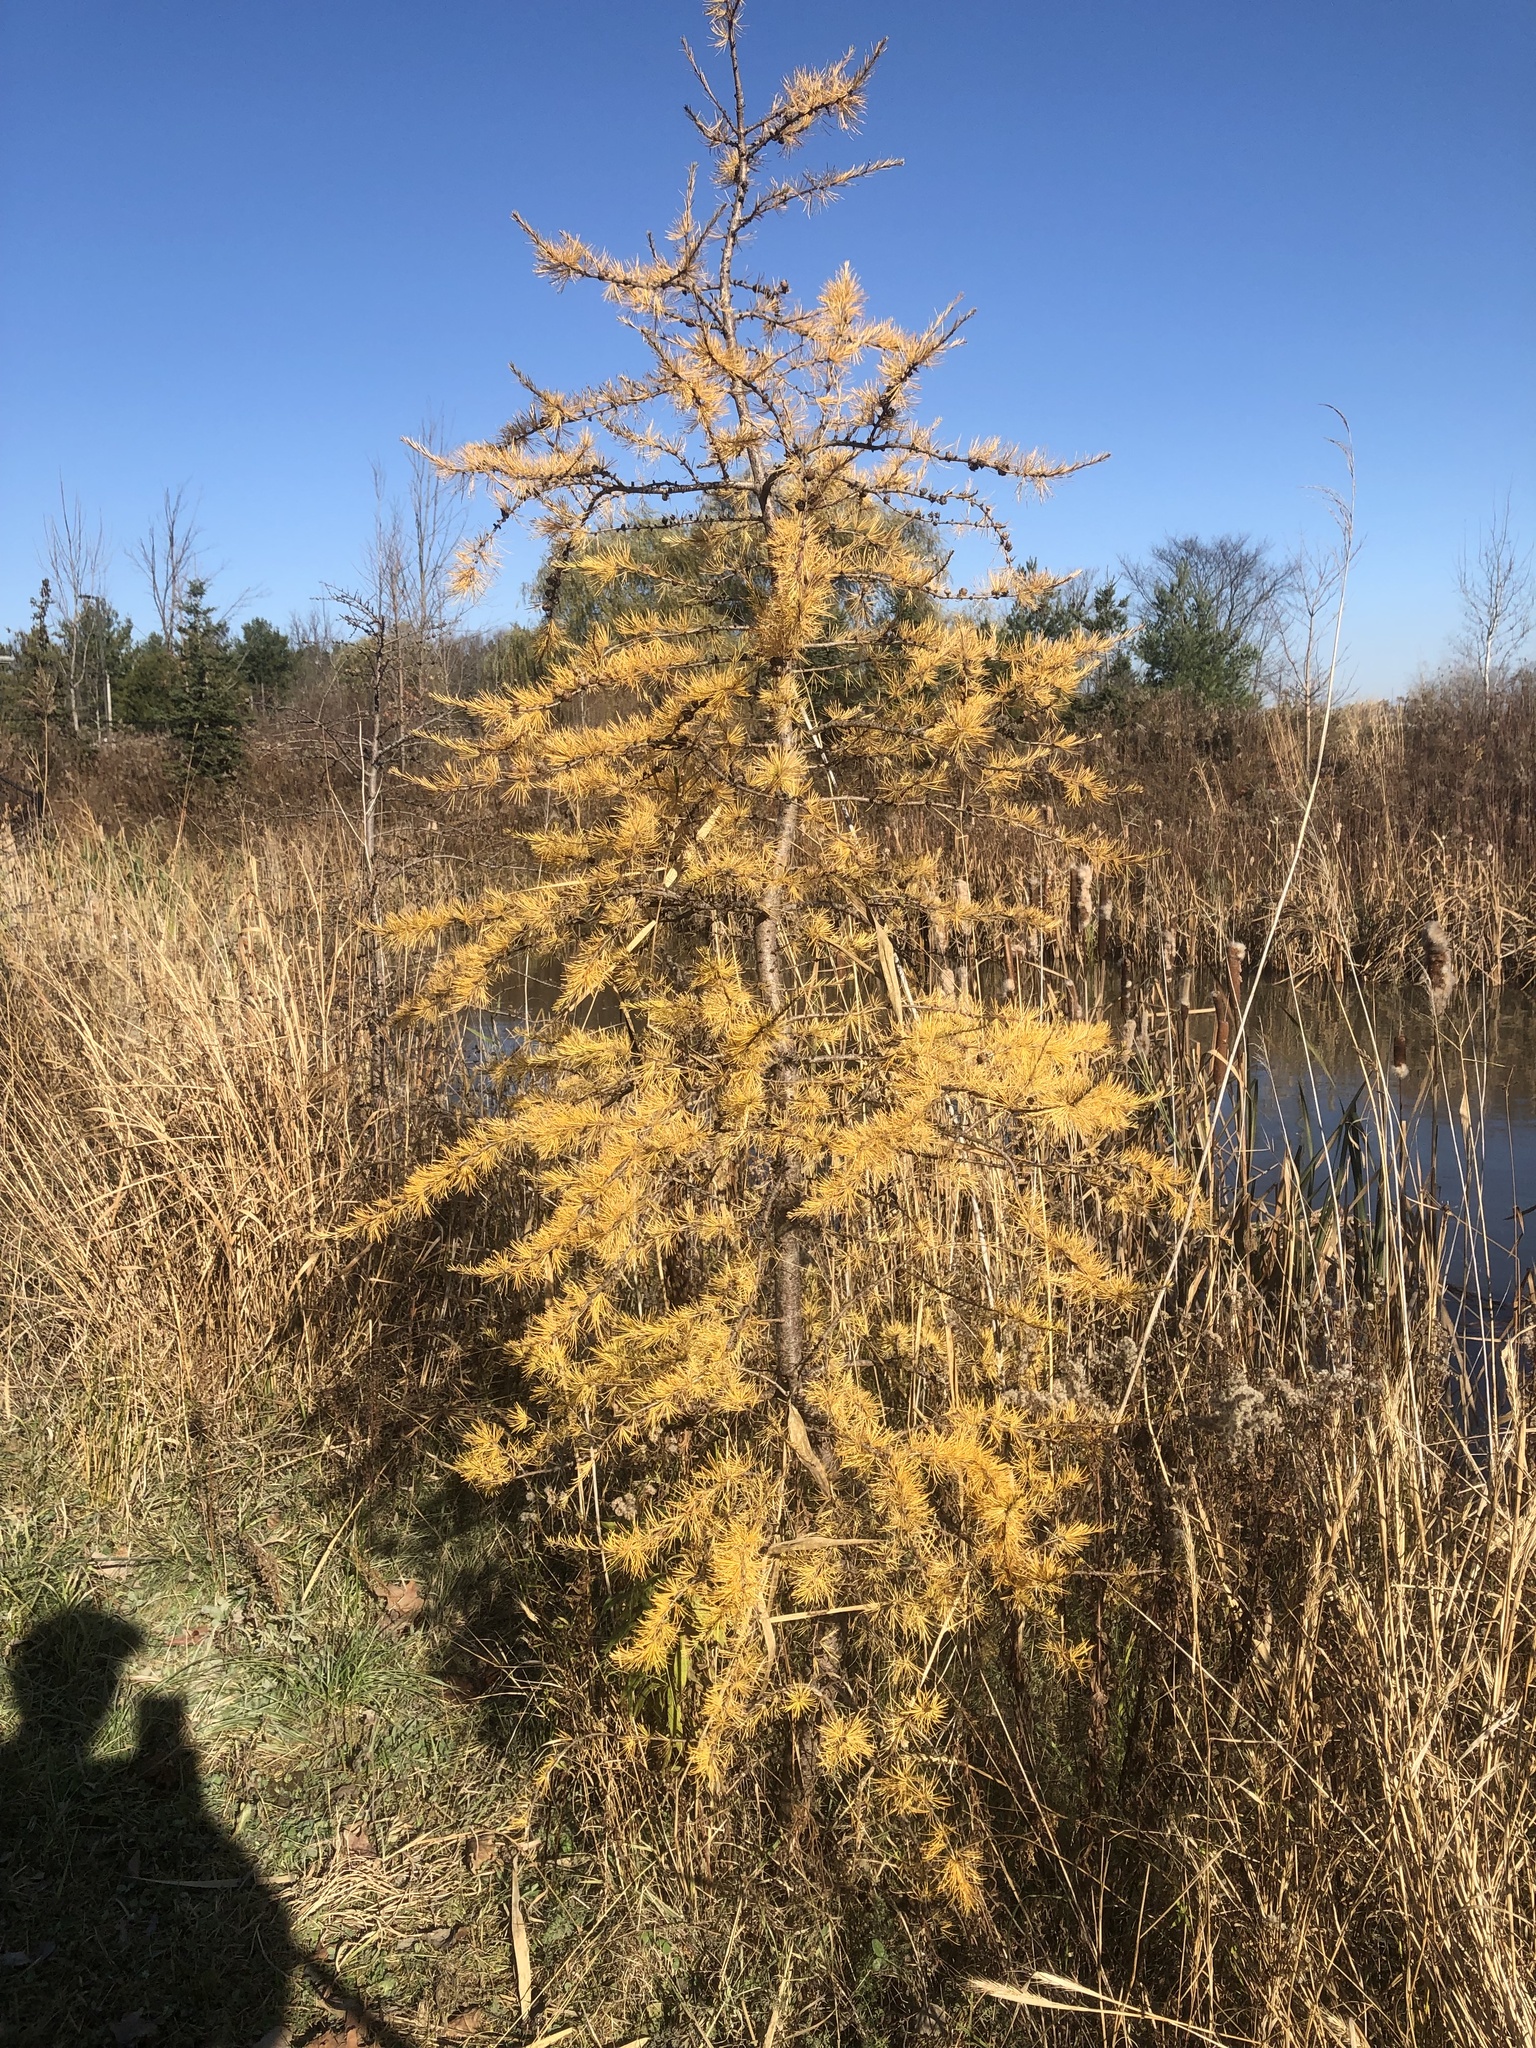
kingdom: Plantae
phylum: Tracheophyta
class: Pinopsida
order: Pinales
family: Pinaceae
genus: Larix
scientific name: Larix laricina
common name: American larch
